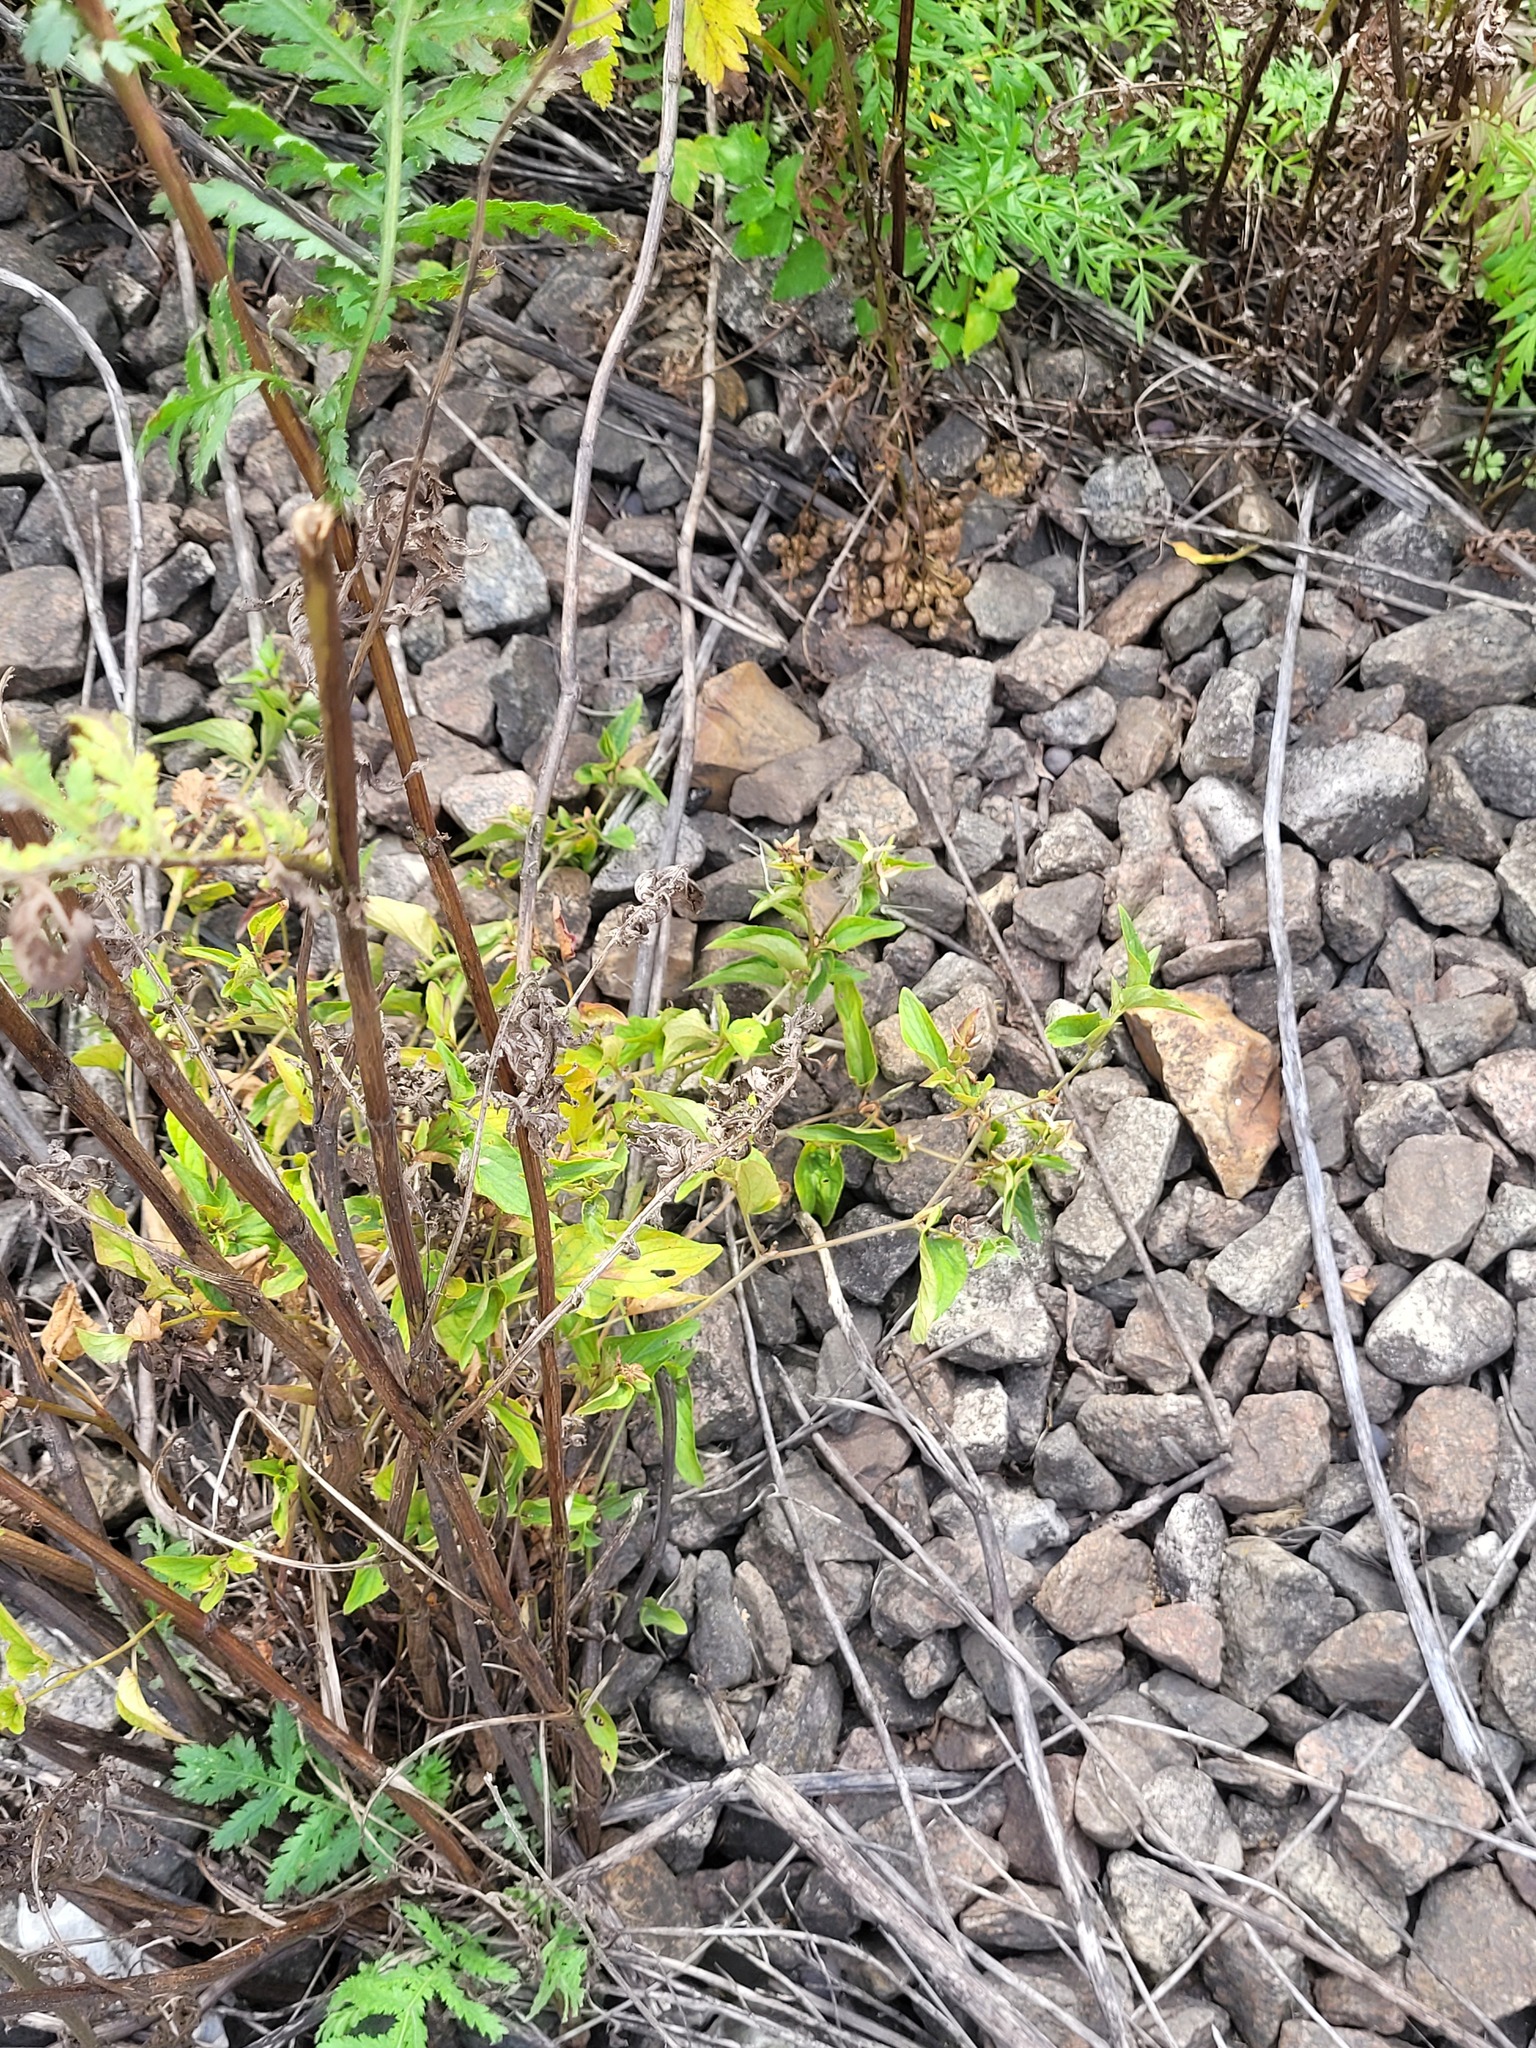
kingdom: Plantae
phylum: Tracheophyta
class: Magnoliopsida
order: Malpighiales
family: Violaceae
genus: Viola
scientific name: Viola canina
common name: Heath dog-violet
